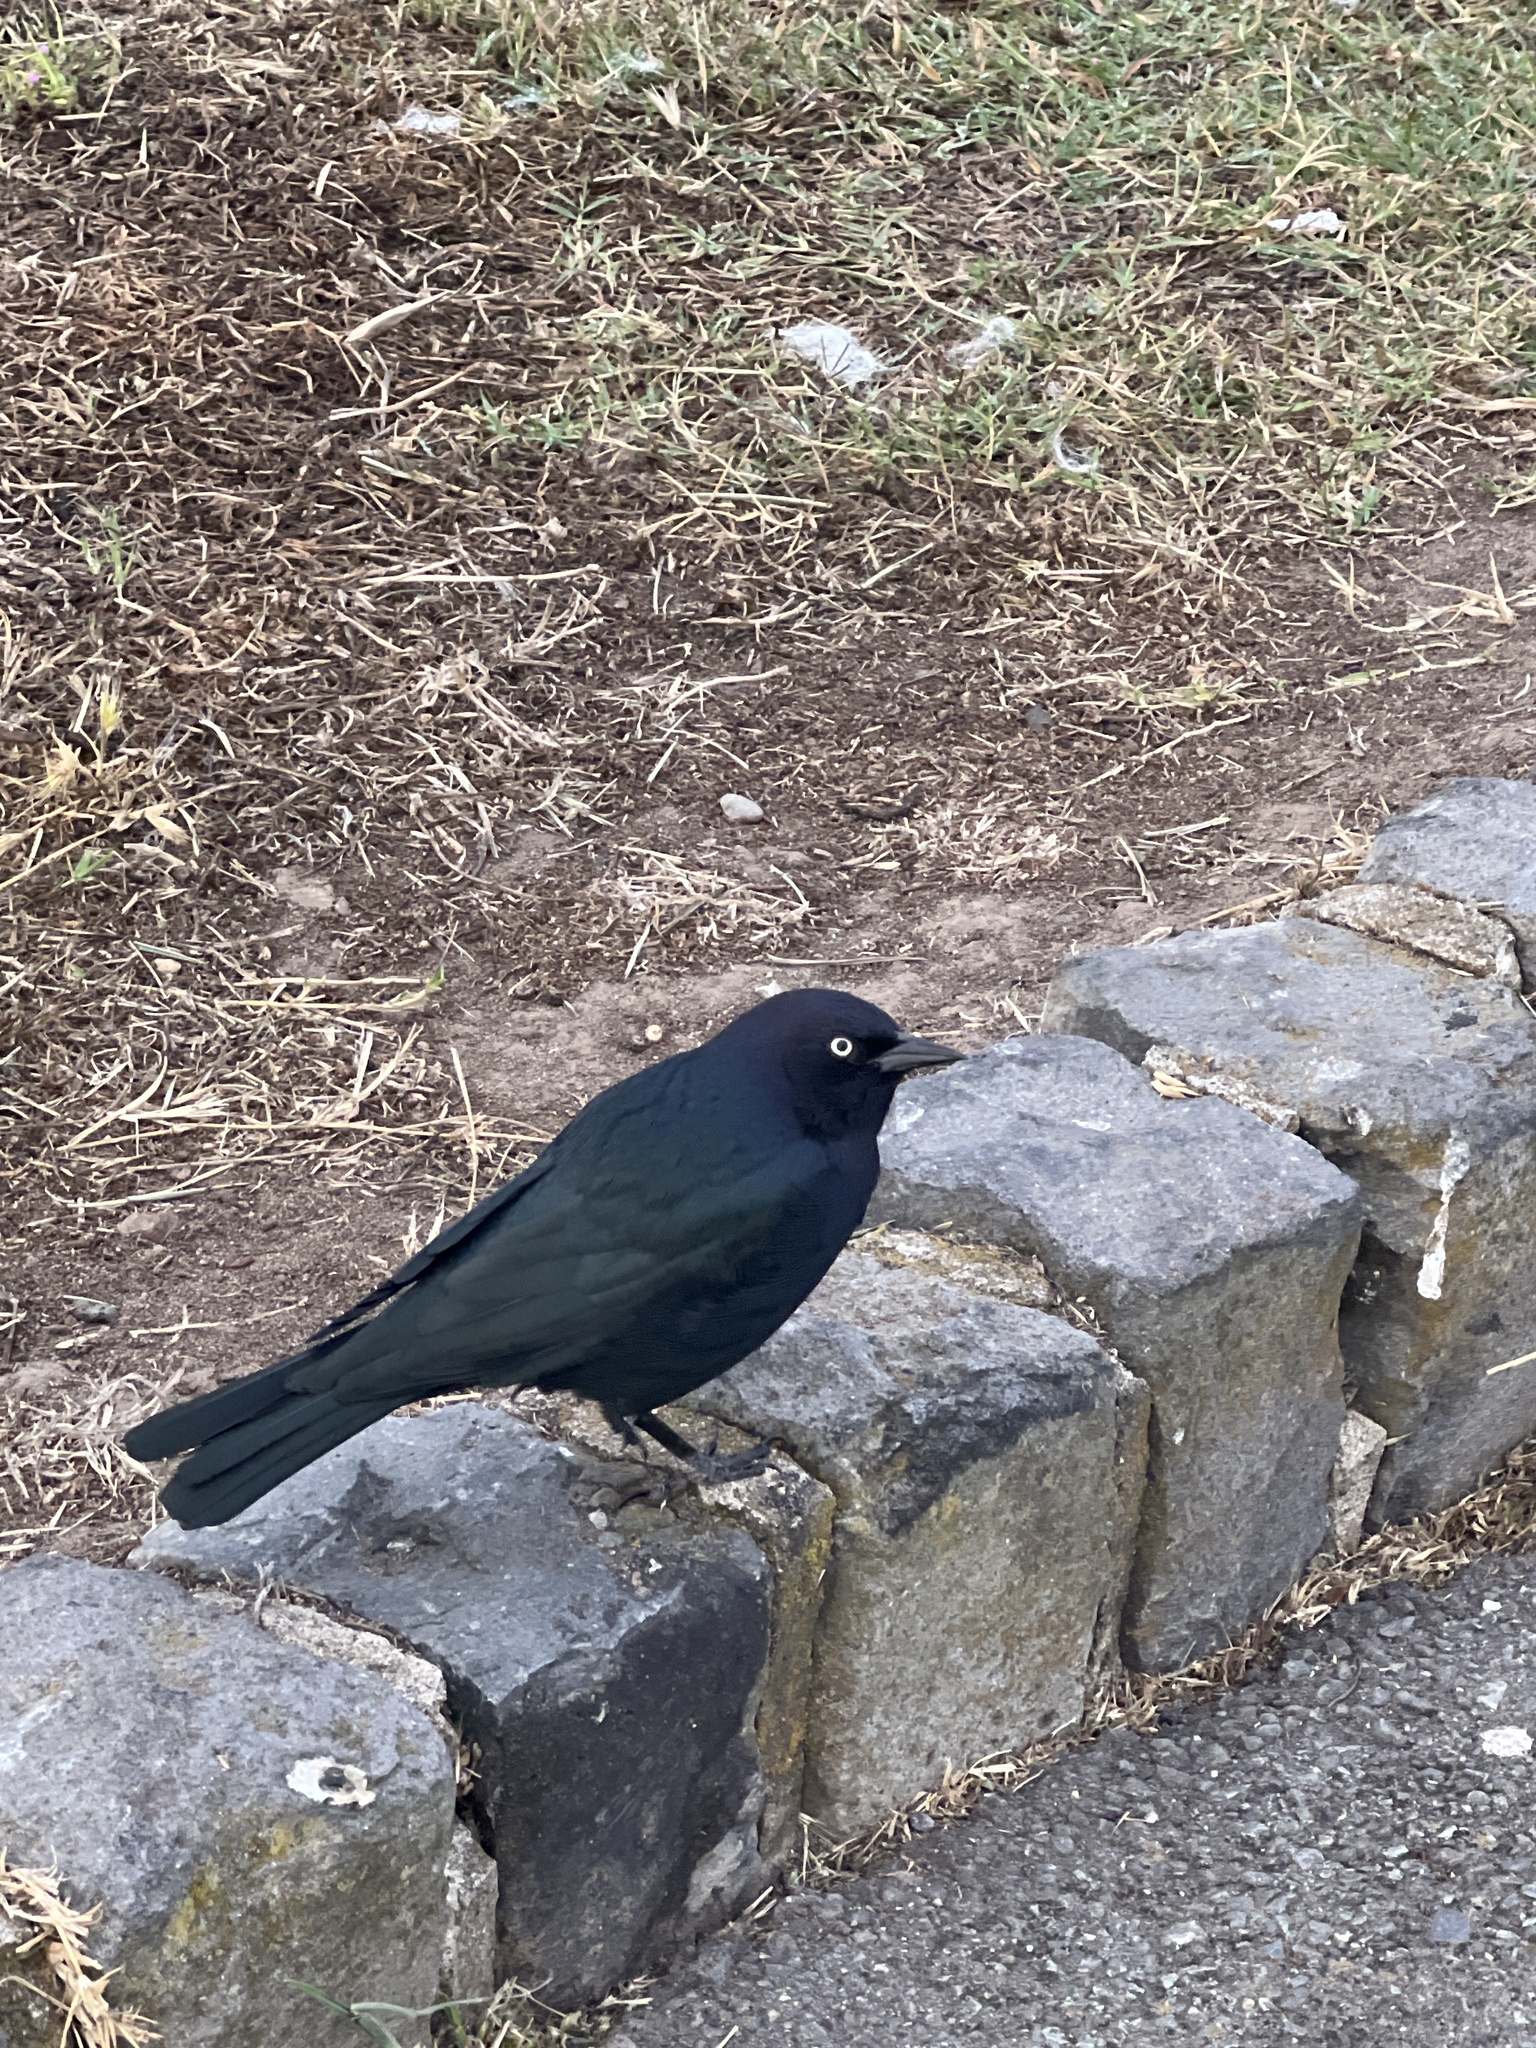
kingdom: Animalia
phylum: Chordata
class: Aves
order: Passeriformes
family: Icteridae
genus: Euphagus
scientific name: Euphagus cyanocephalus
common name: Brewer's blackbird
